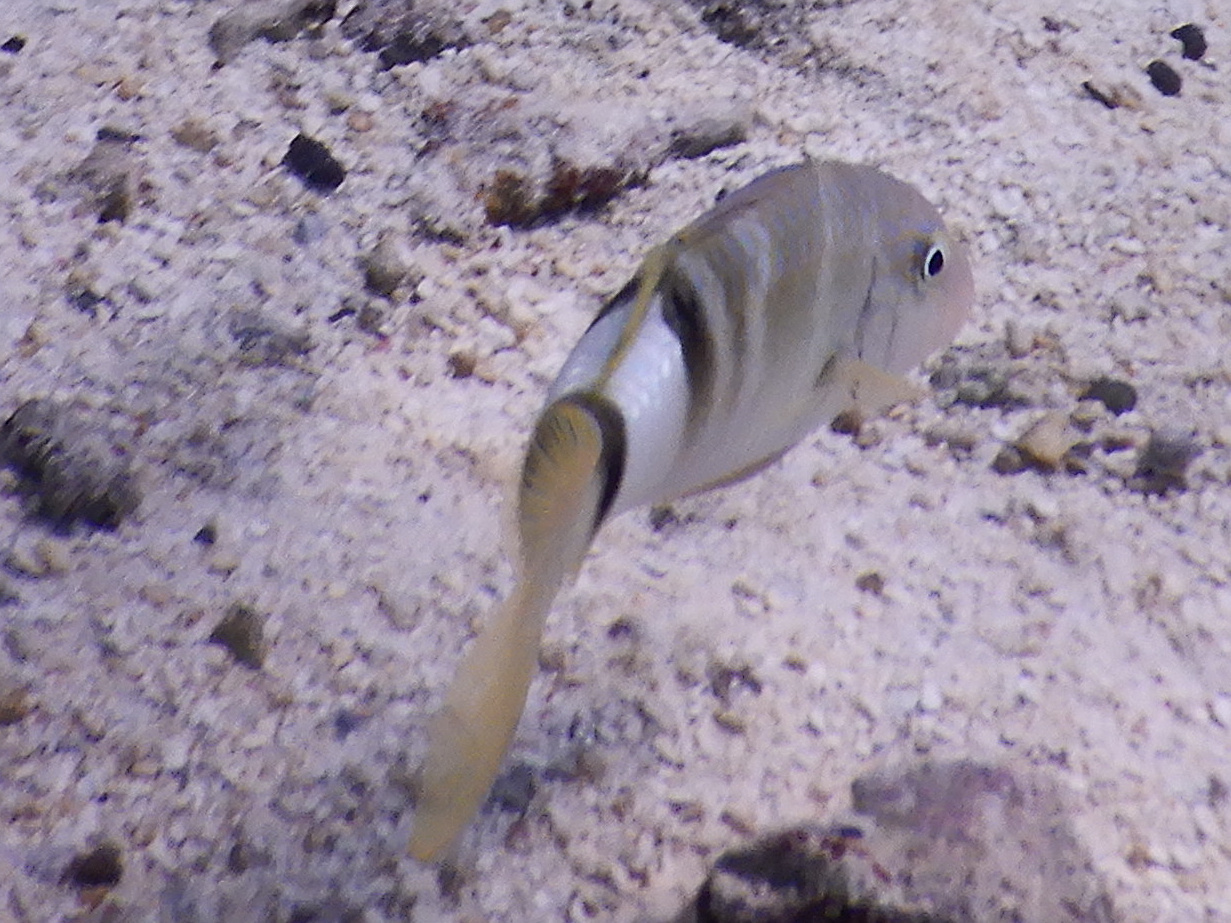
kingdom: Animalia
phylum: Chordata
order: Perciformes
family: Mullidae
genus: Parupeneus
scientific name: Parupeneus multifasciatus
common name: Manybar goatfish
